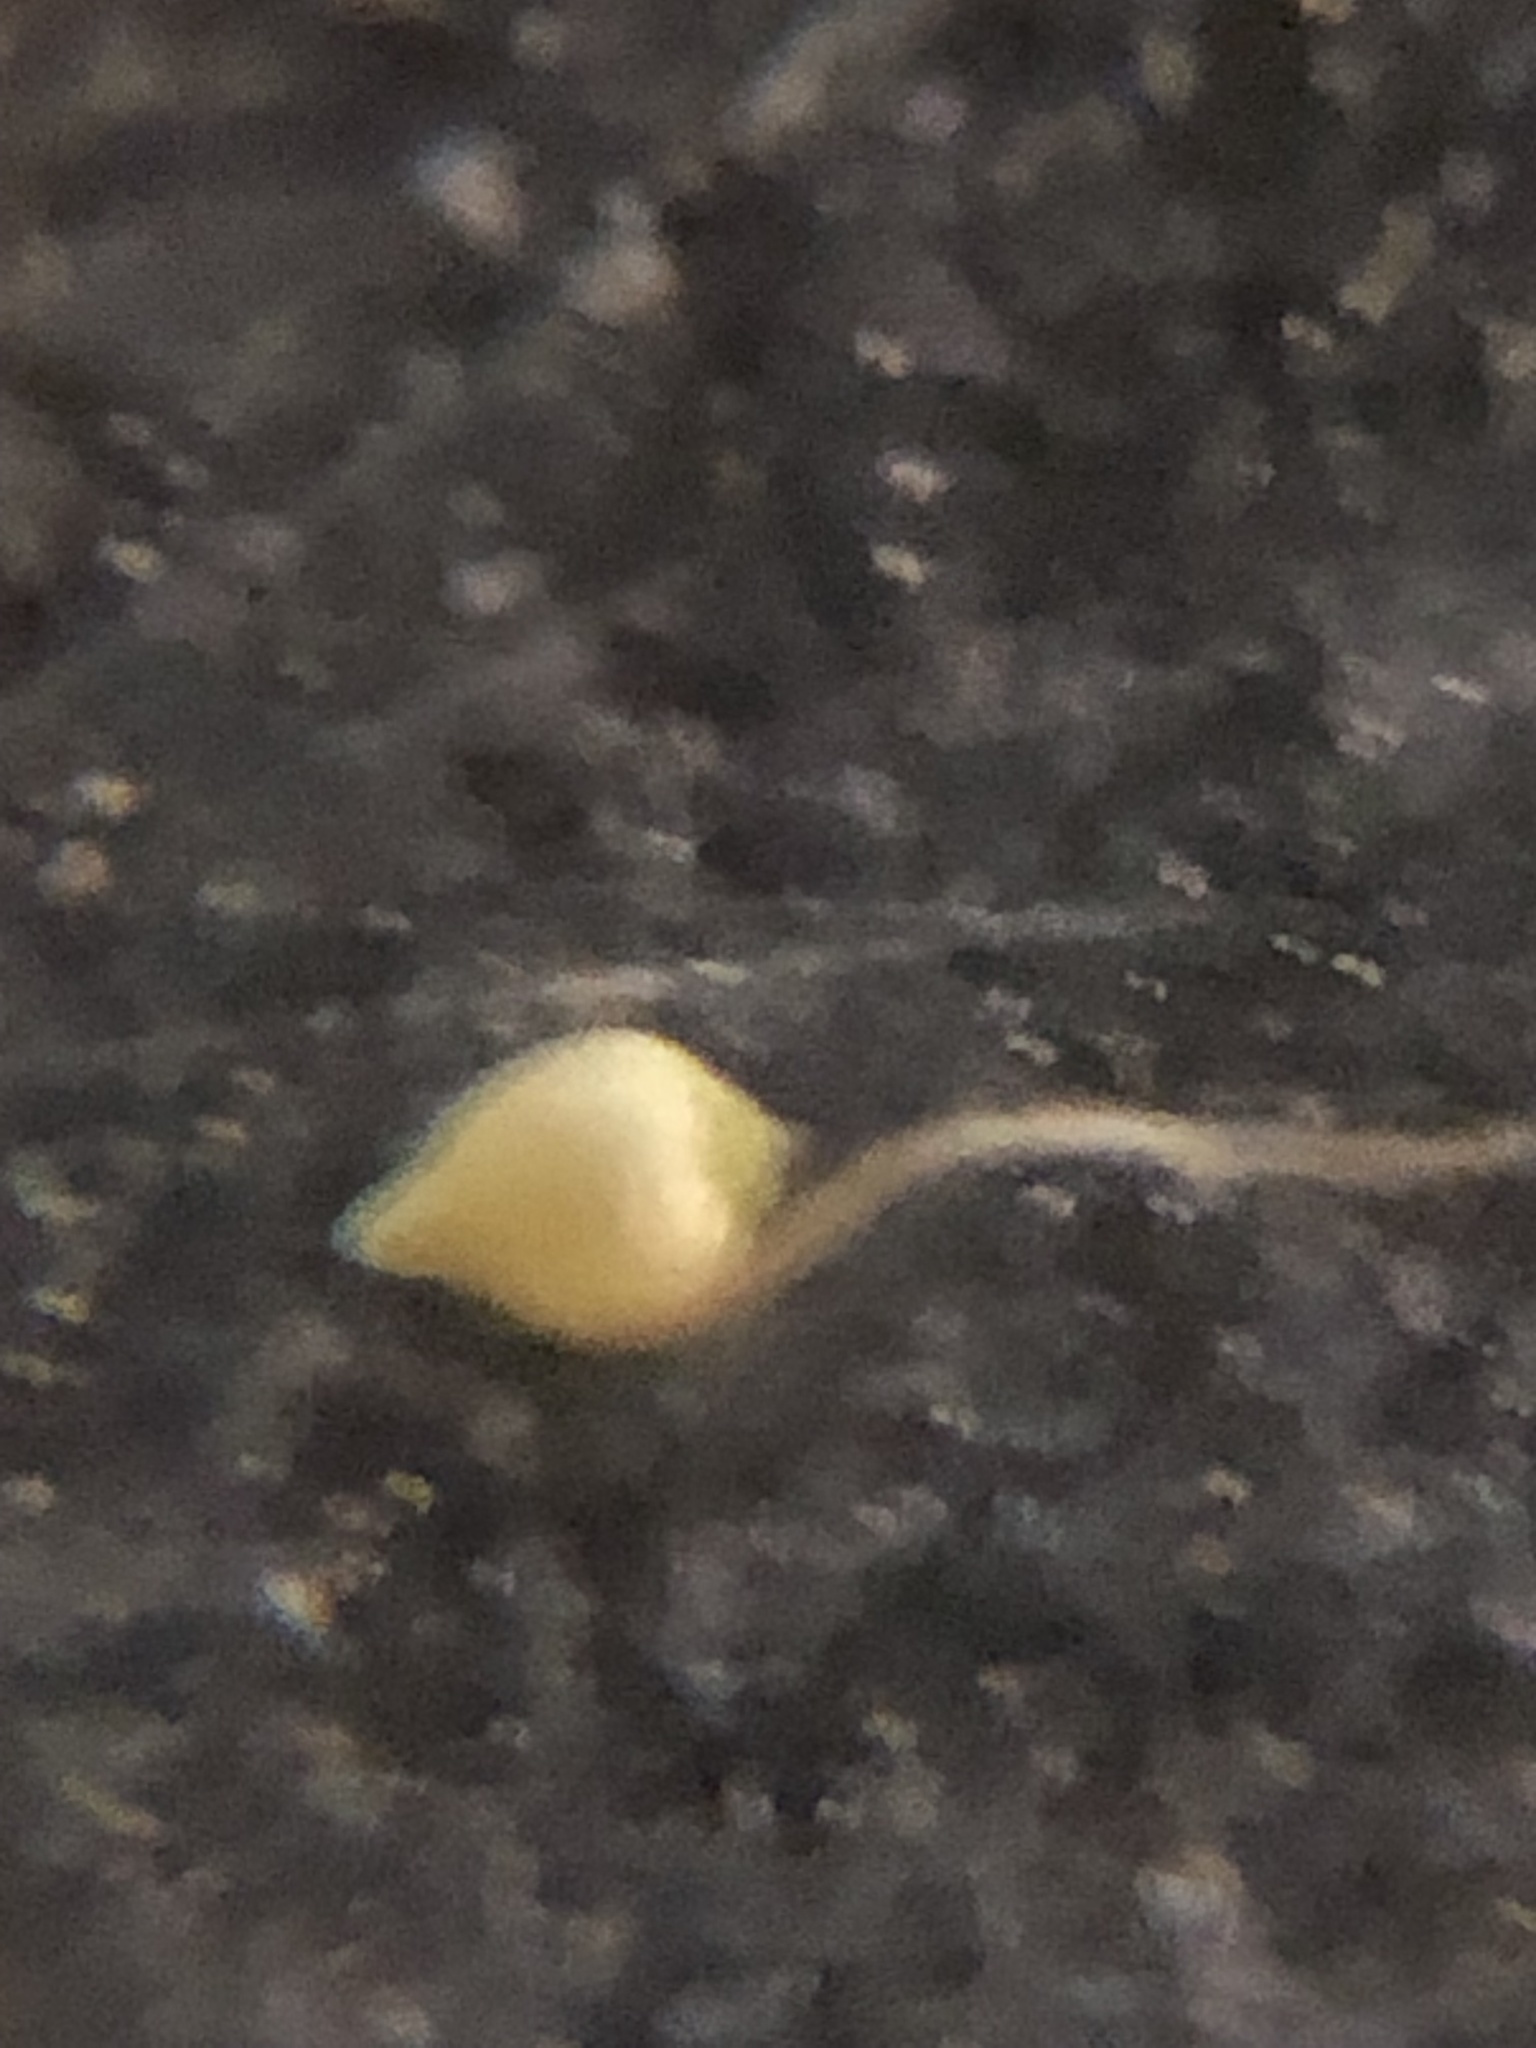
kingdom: Plantae
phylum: Tracheophyta
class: Liliopsida
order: Poales
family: Cyperaceae
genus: Rhynchospora
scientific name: Rhynchospora divergens
